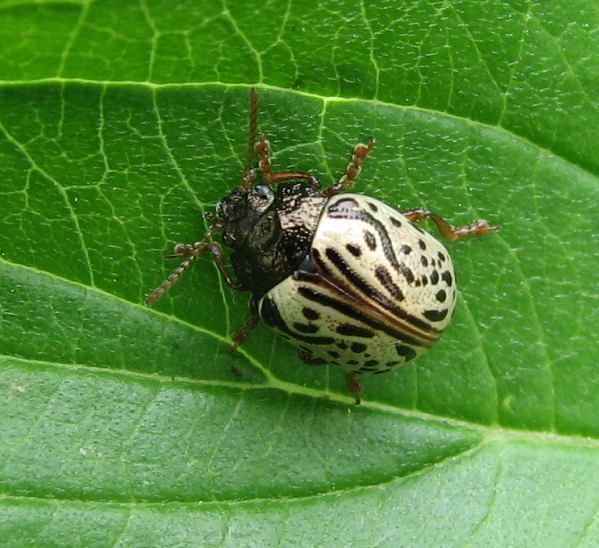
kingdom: Animalia
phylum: Arthropoda
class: Insecta
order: Coleoptera
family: Chrysomelidae
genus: Calligrapha
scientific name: Calligrapha philadelphica
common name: Dogwood leaf beetle
